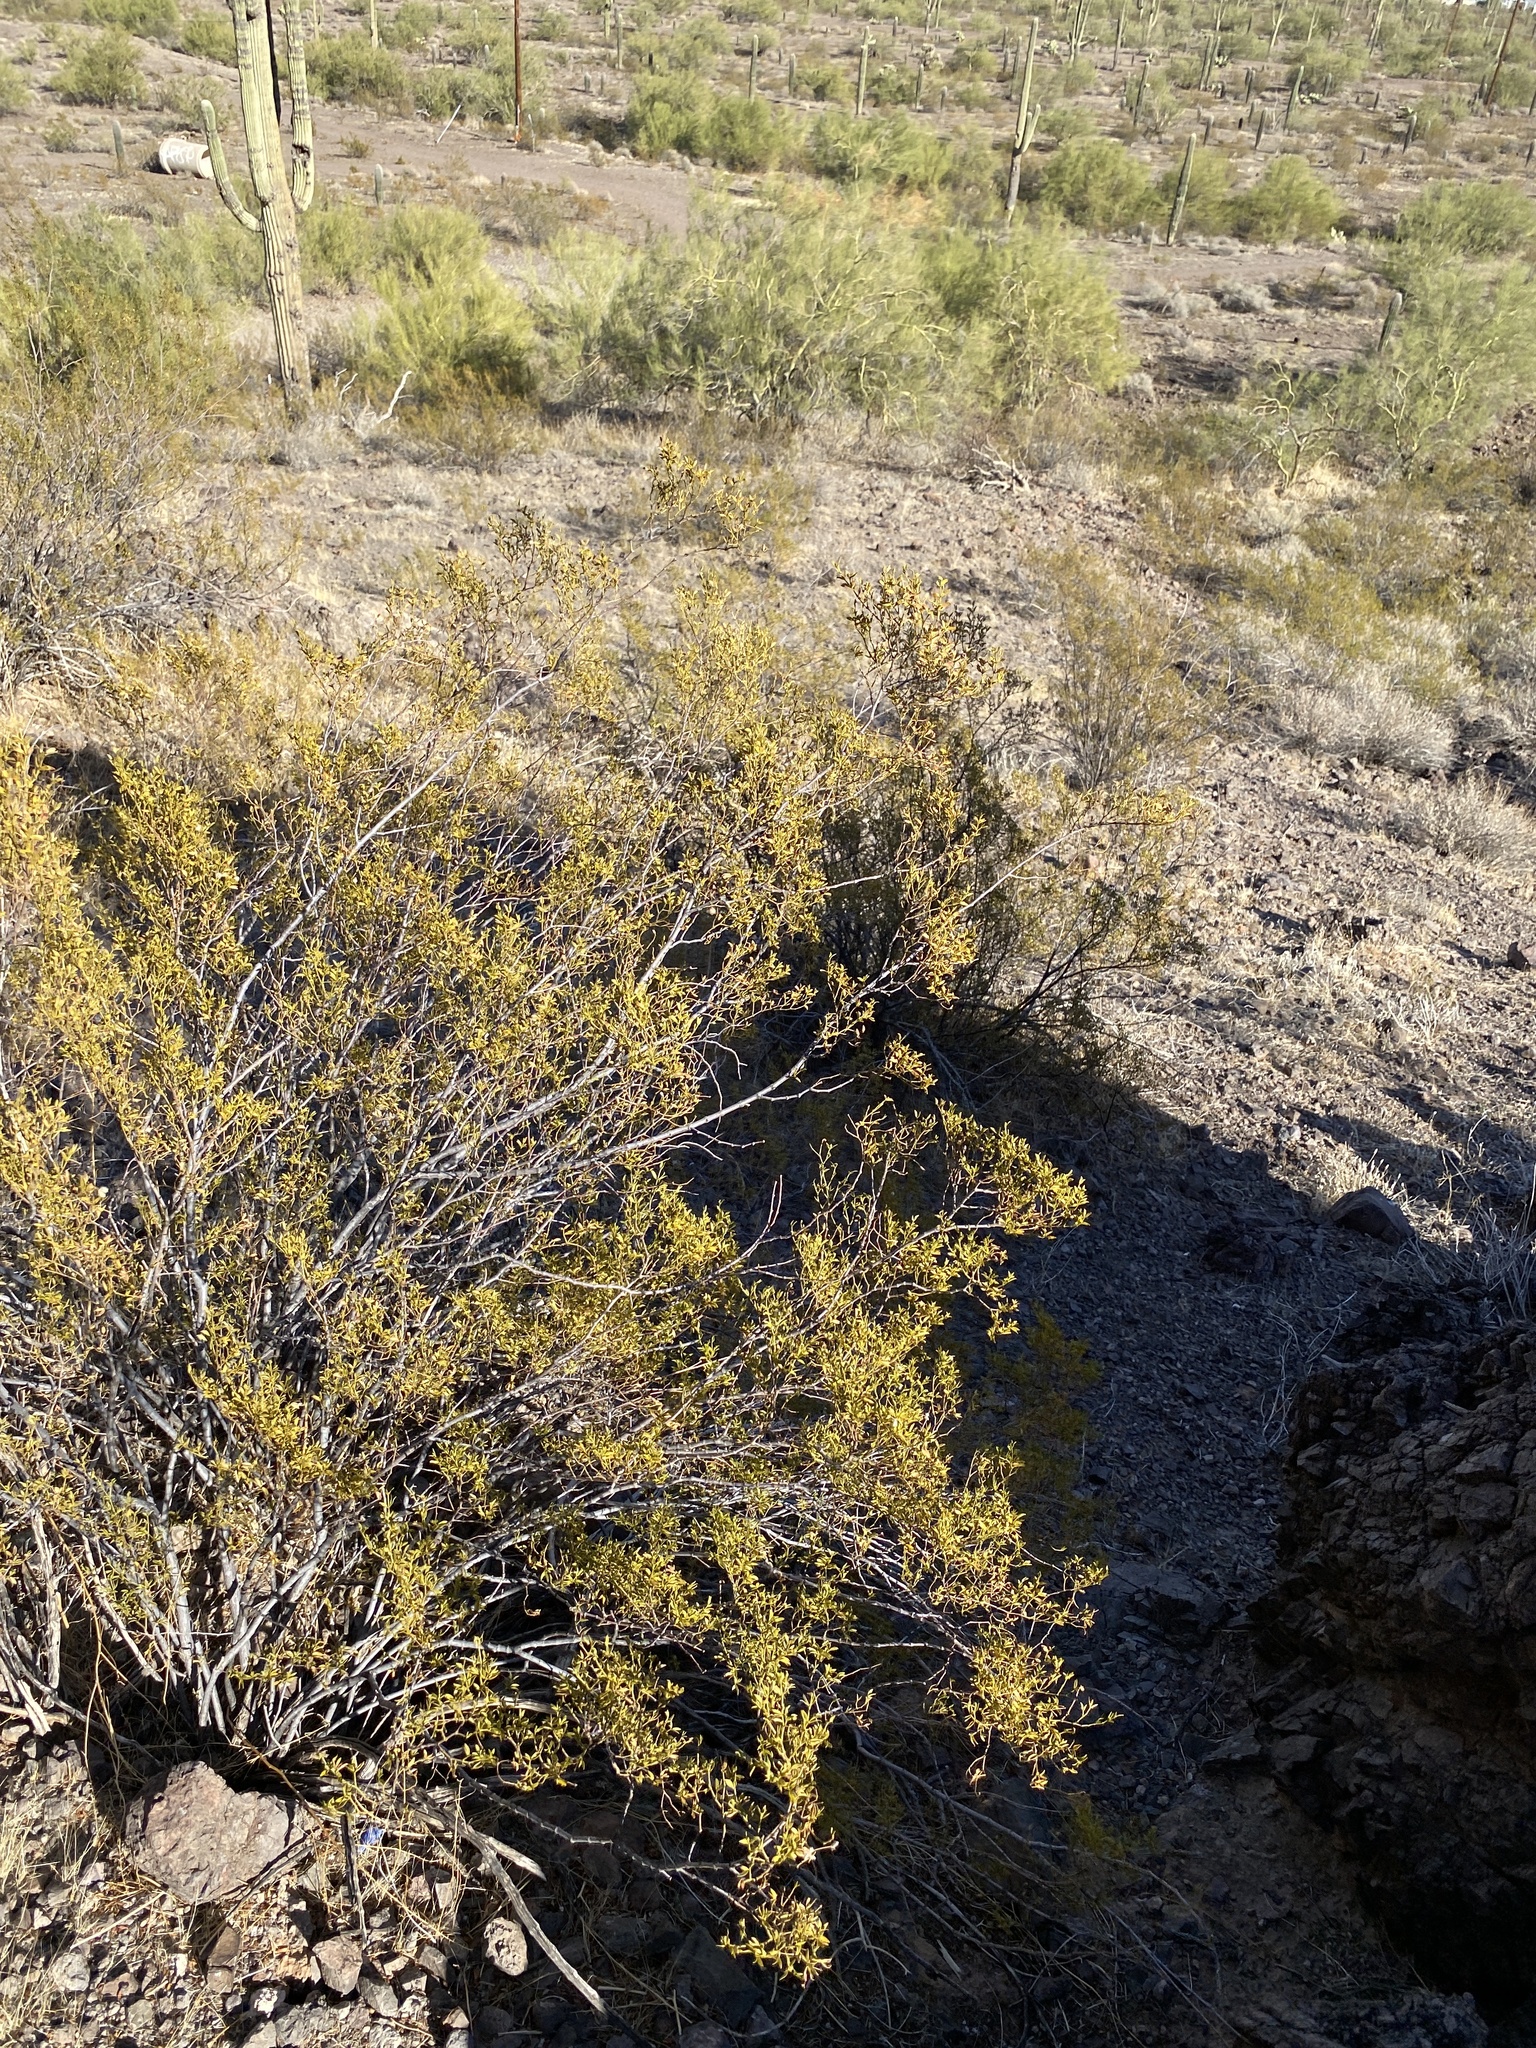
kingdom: Plantae
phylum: Tracheophyta
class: Magnoliopsida
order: Zygophyllales
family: Zygophyllaceae
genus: Larrea
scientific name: Larrea tridentata
